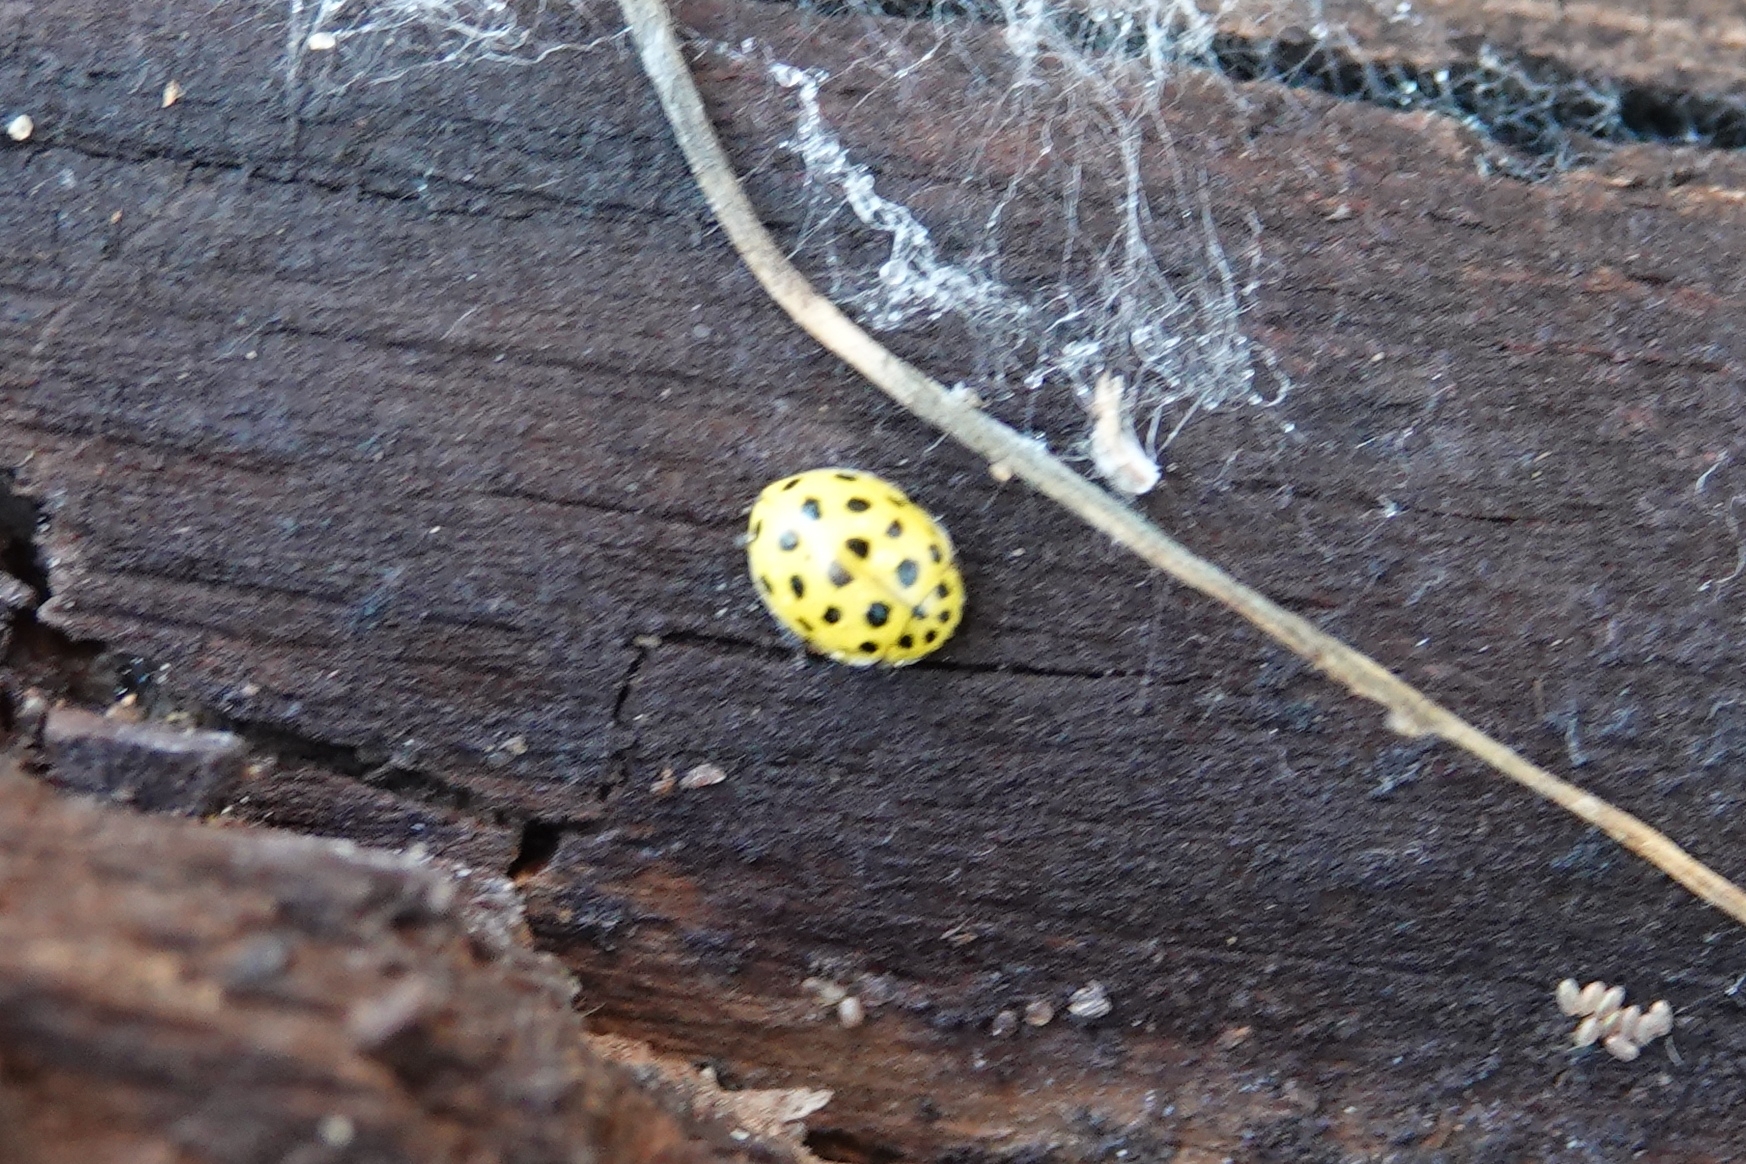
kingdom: Animalia
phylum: Arthropoda
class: Insecta
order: Coleoptera
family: Coccinellidae
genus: Psyllobora
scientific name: Psyllobora vigintiduopunctata
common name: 22-spot ladybird
